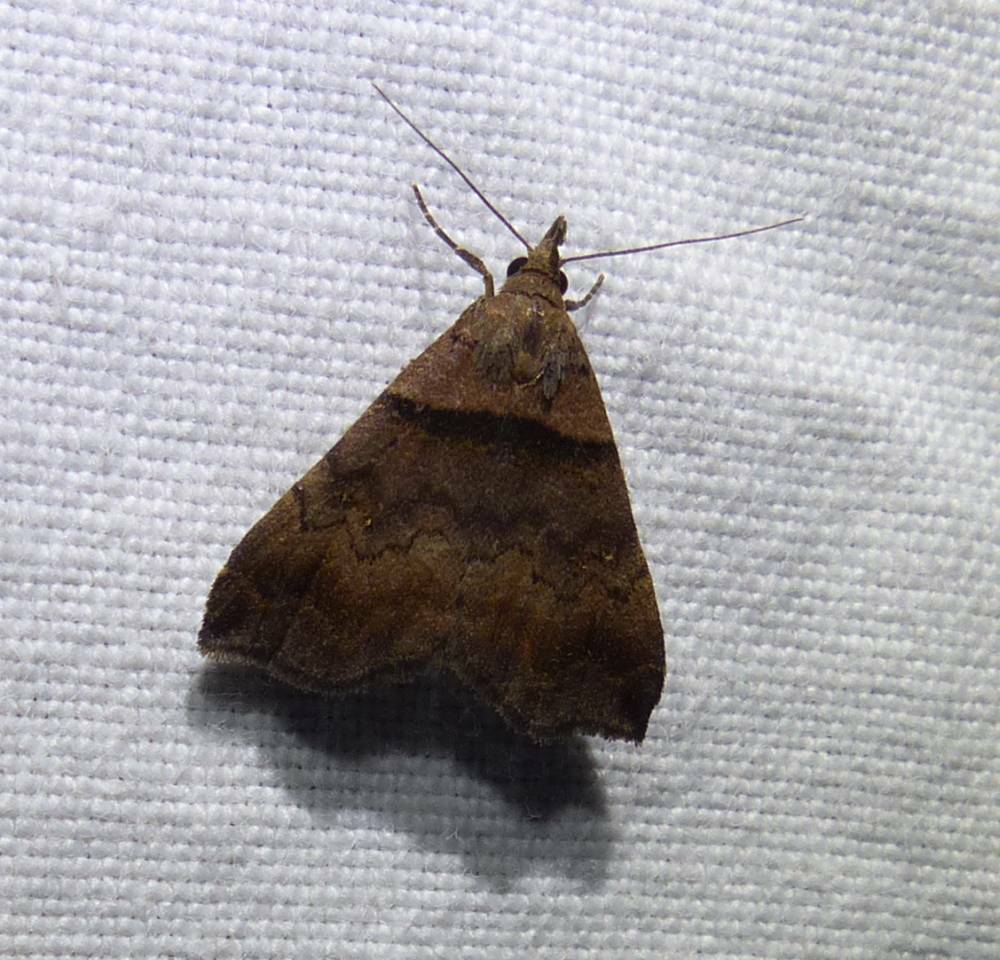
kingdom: Animalia
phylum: Arthropoda
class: Insecta
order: Lepidoptera
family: Erebidae
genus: Lascoria
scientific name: Lascoria ambigualis
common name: Ambiguous moth
